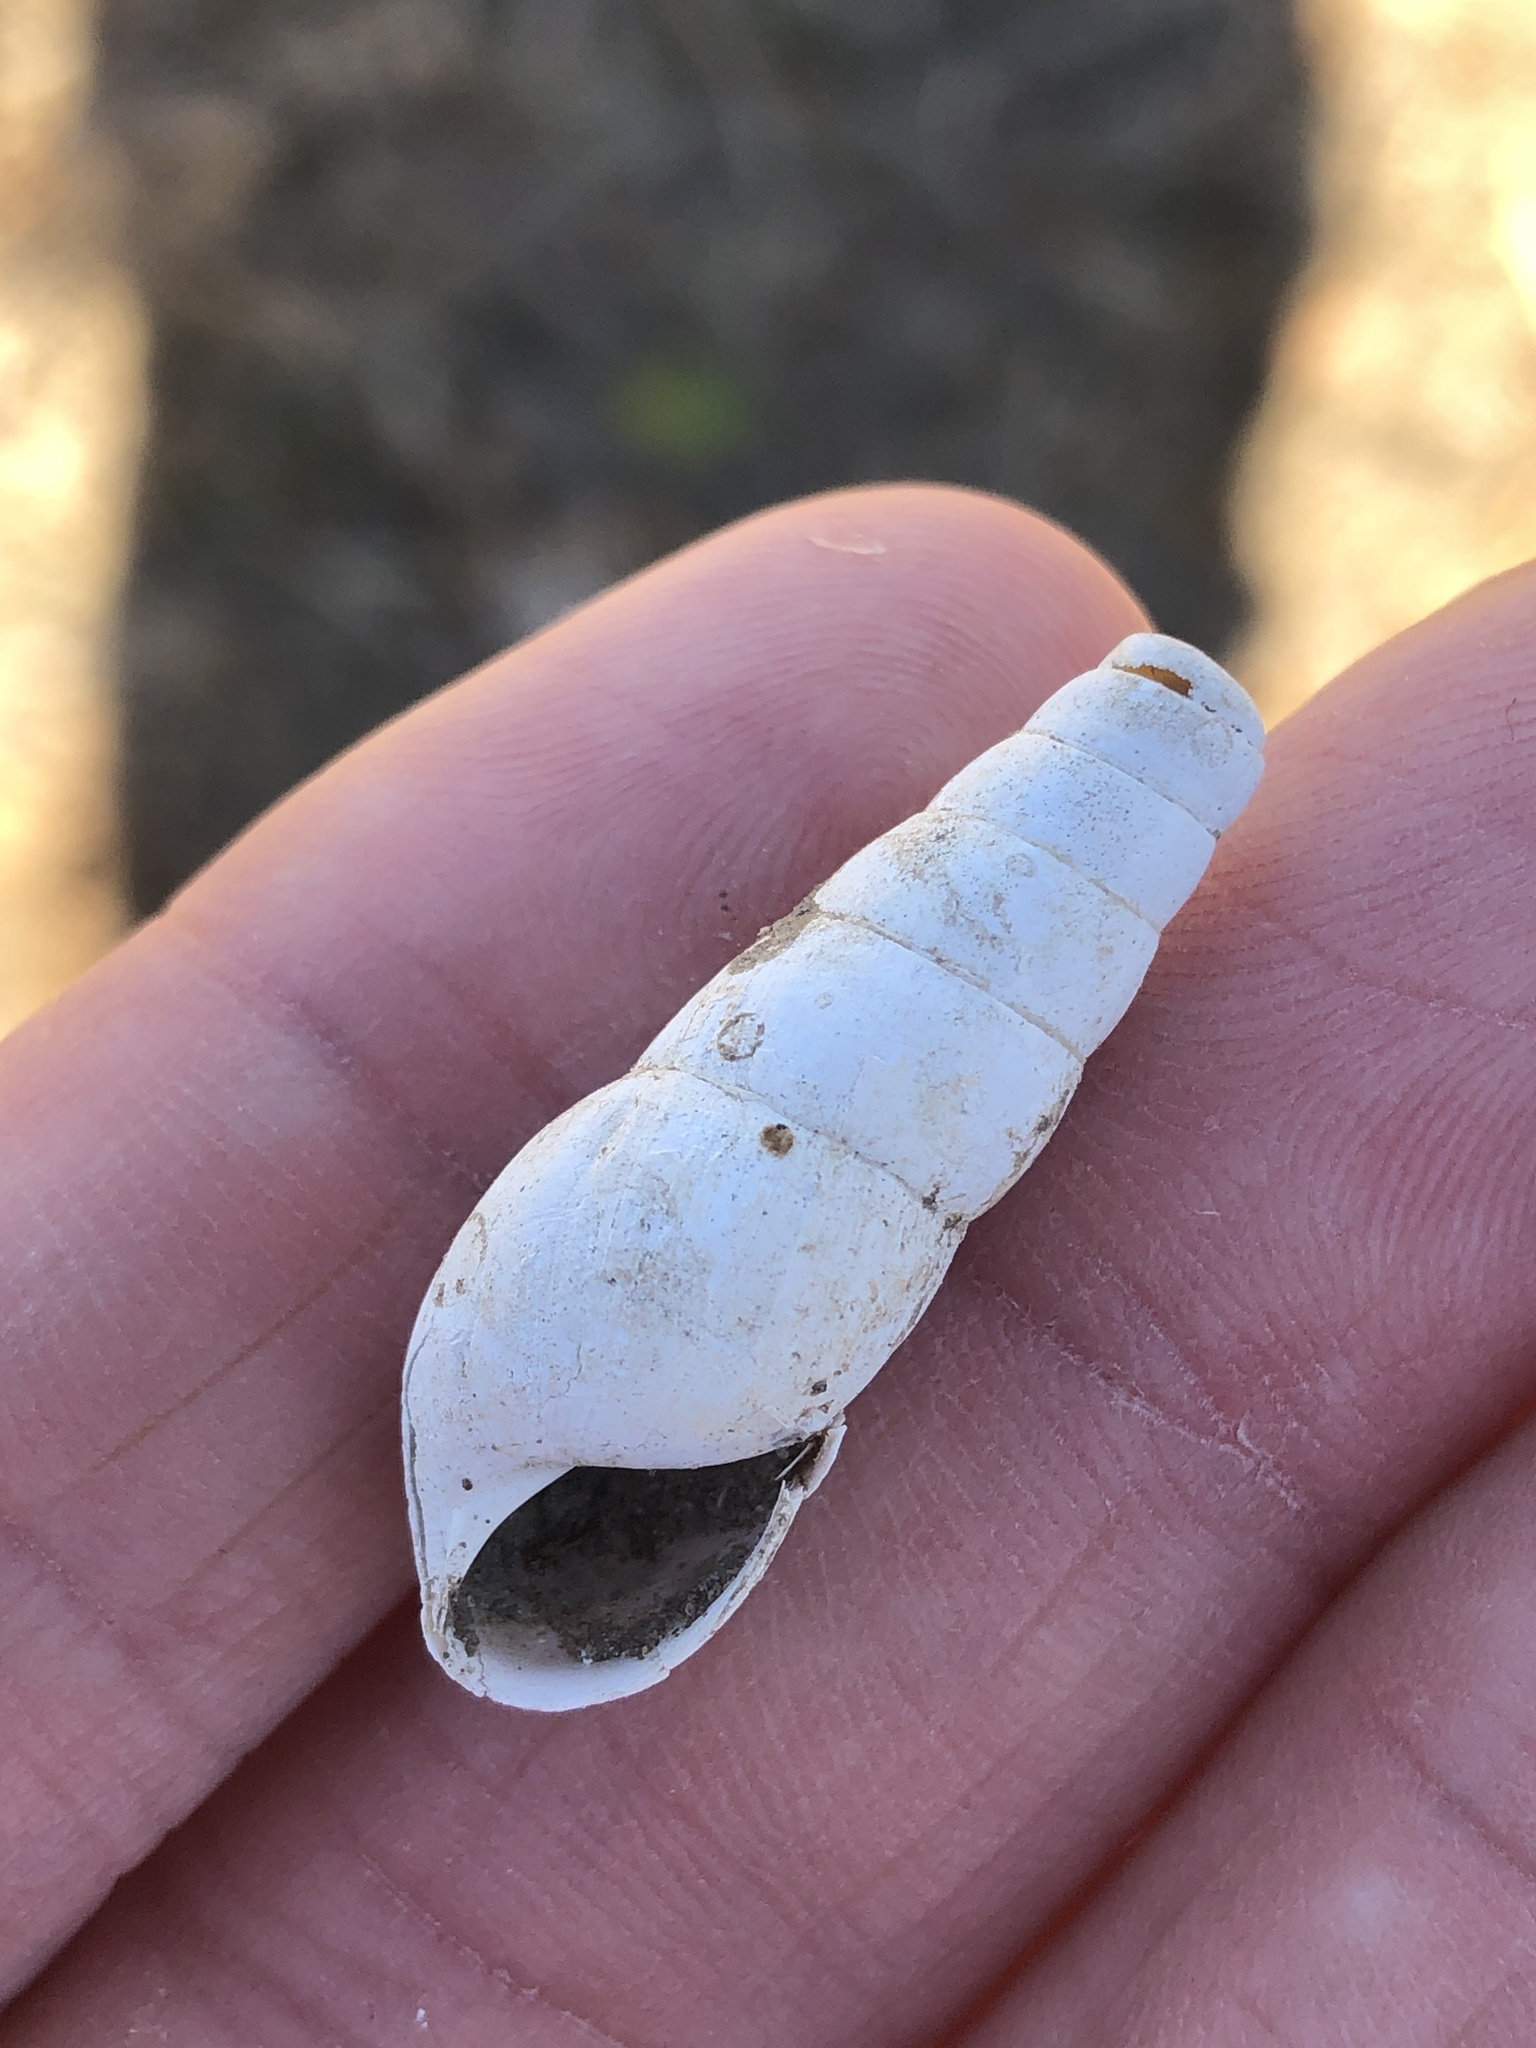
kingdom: Animalia
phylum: Mollusca
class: Gastropoda
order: Stylommatophora
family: Achatinidae
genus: Rumina
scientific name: Rumina decollata
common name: Decollate snail
